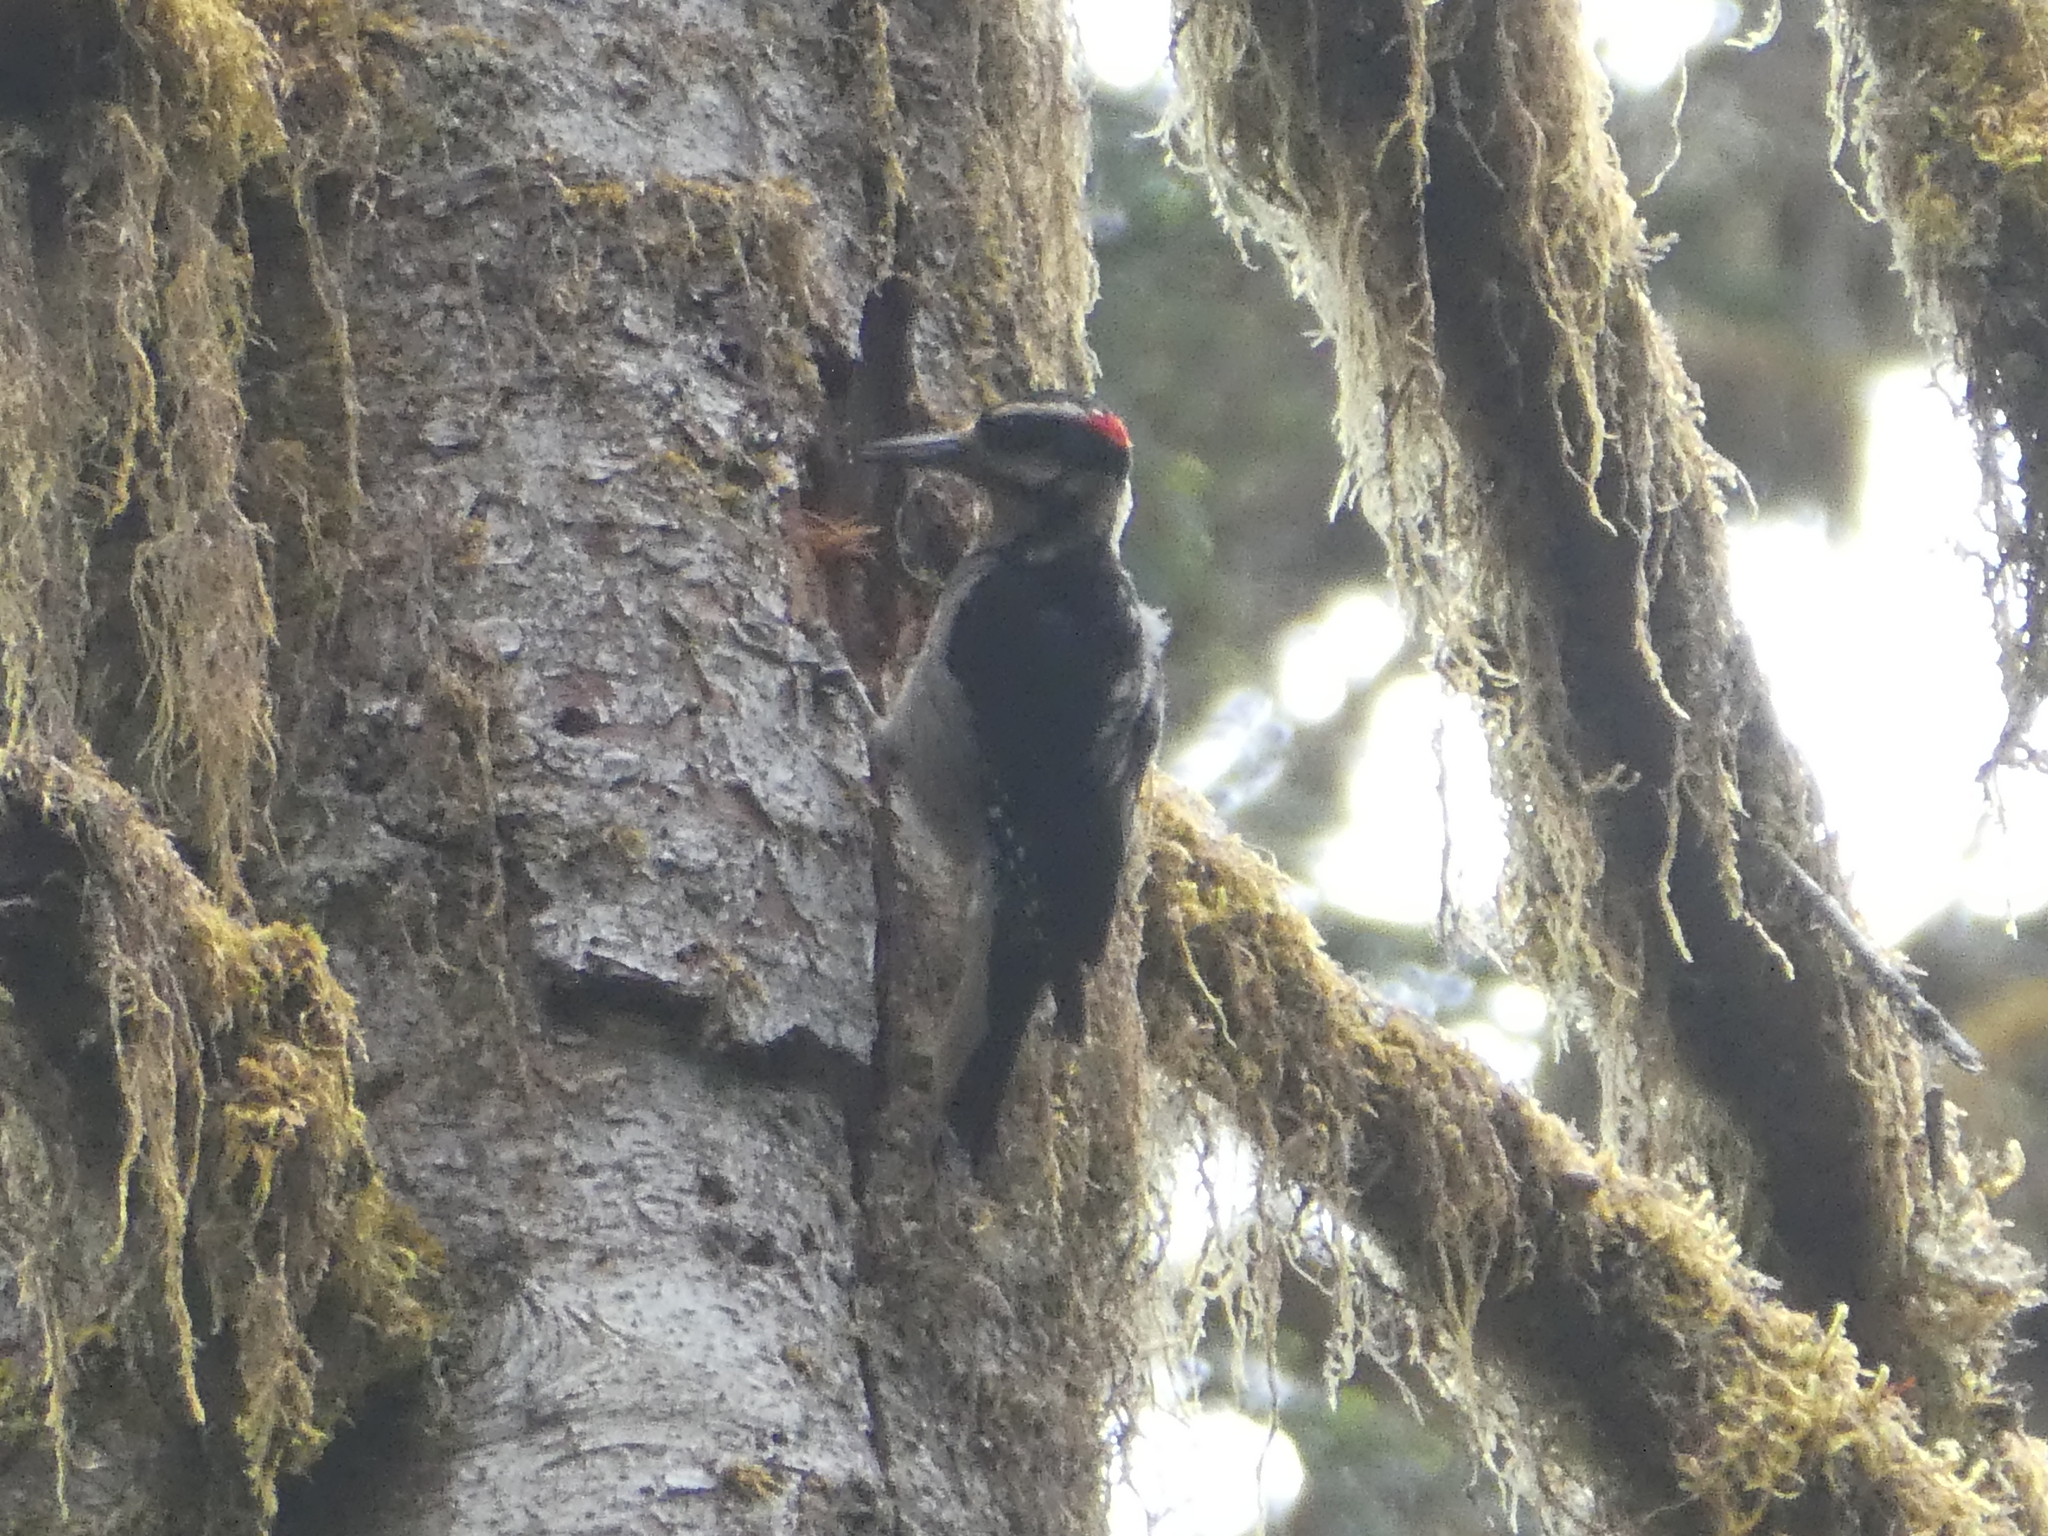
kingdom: Animalia
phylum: Chordata
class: Aves
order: Piciformes
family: Picidae
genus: Leuconotopicus
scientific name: Leuconotopicus villosus
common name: Hairy woodpecker
